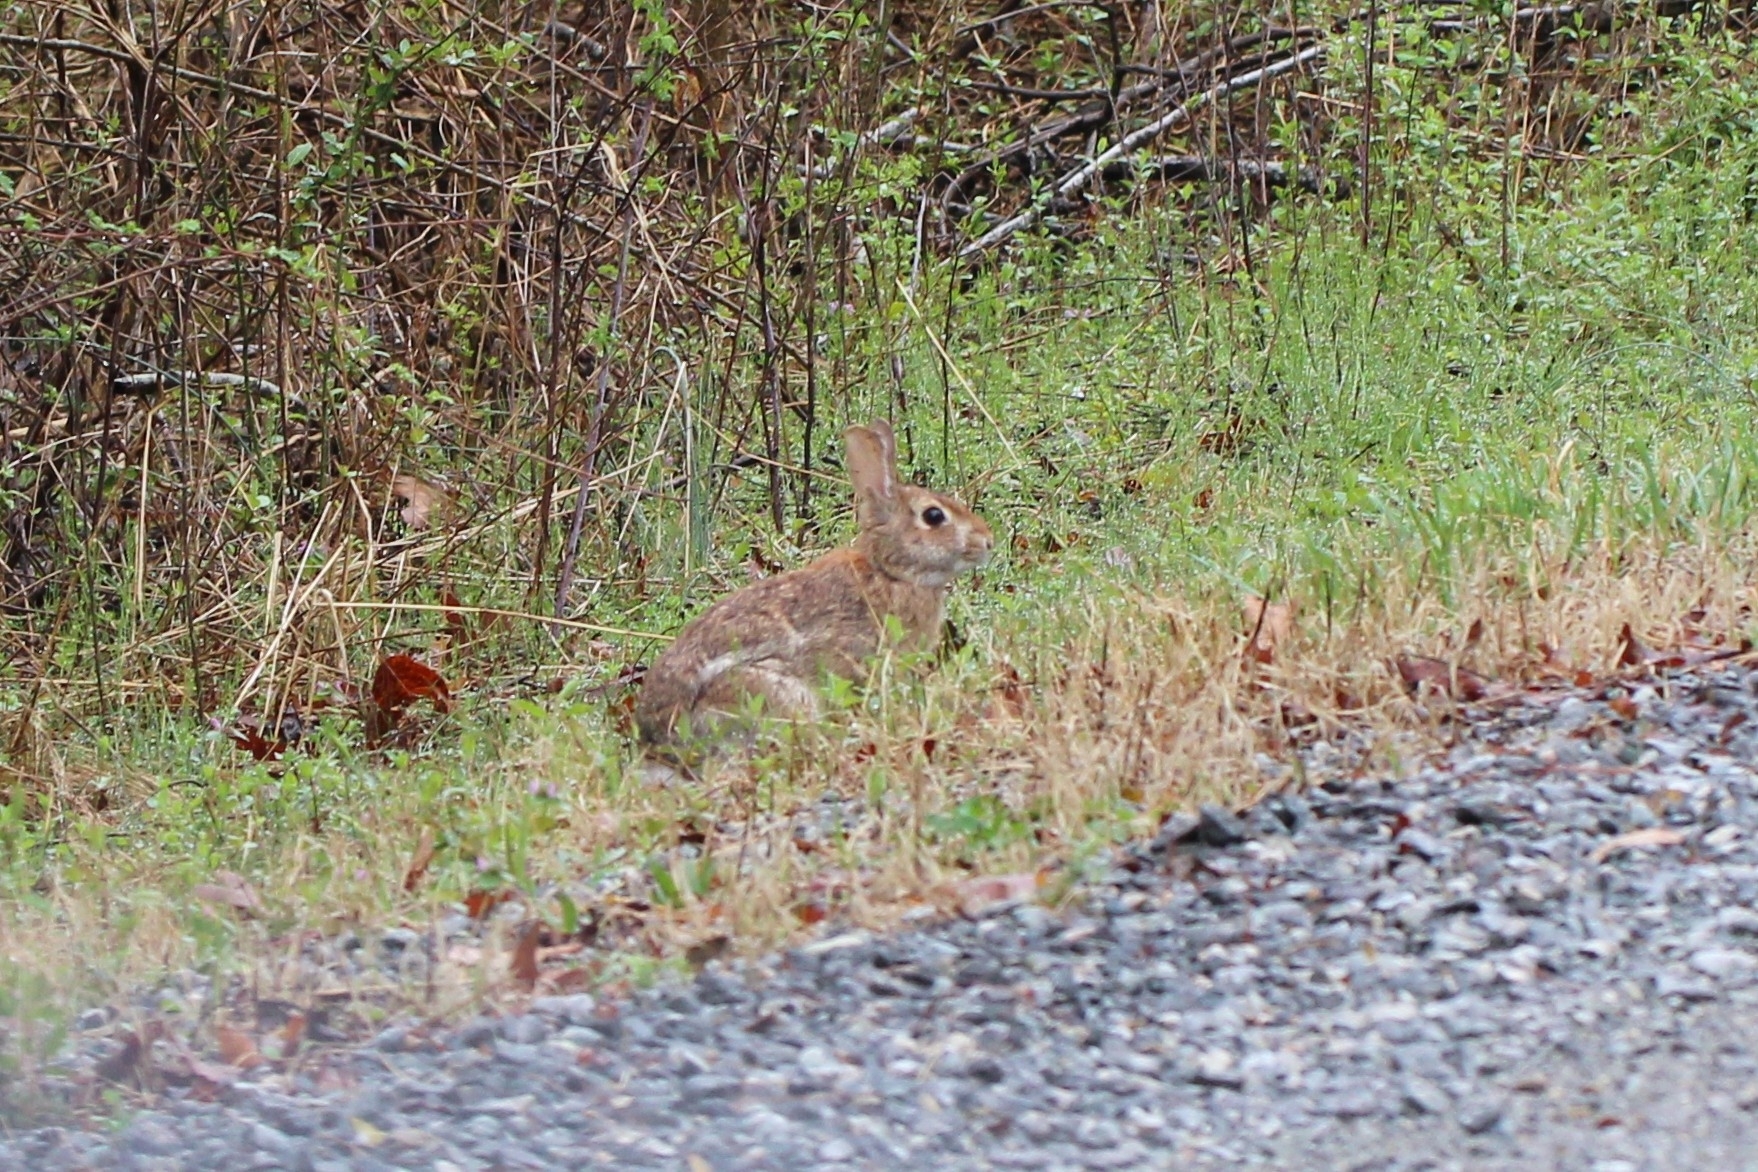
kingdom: Animalia
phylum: Chordata
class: Mammalia
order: Lagomorpha
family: Leporidae
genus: Sylvilagus
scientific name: Sylvilagus floridanus
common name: Eastern cottontail
